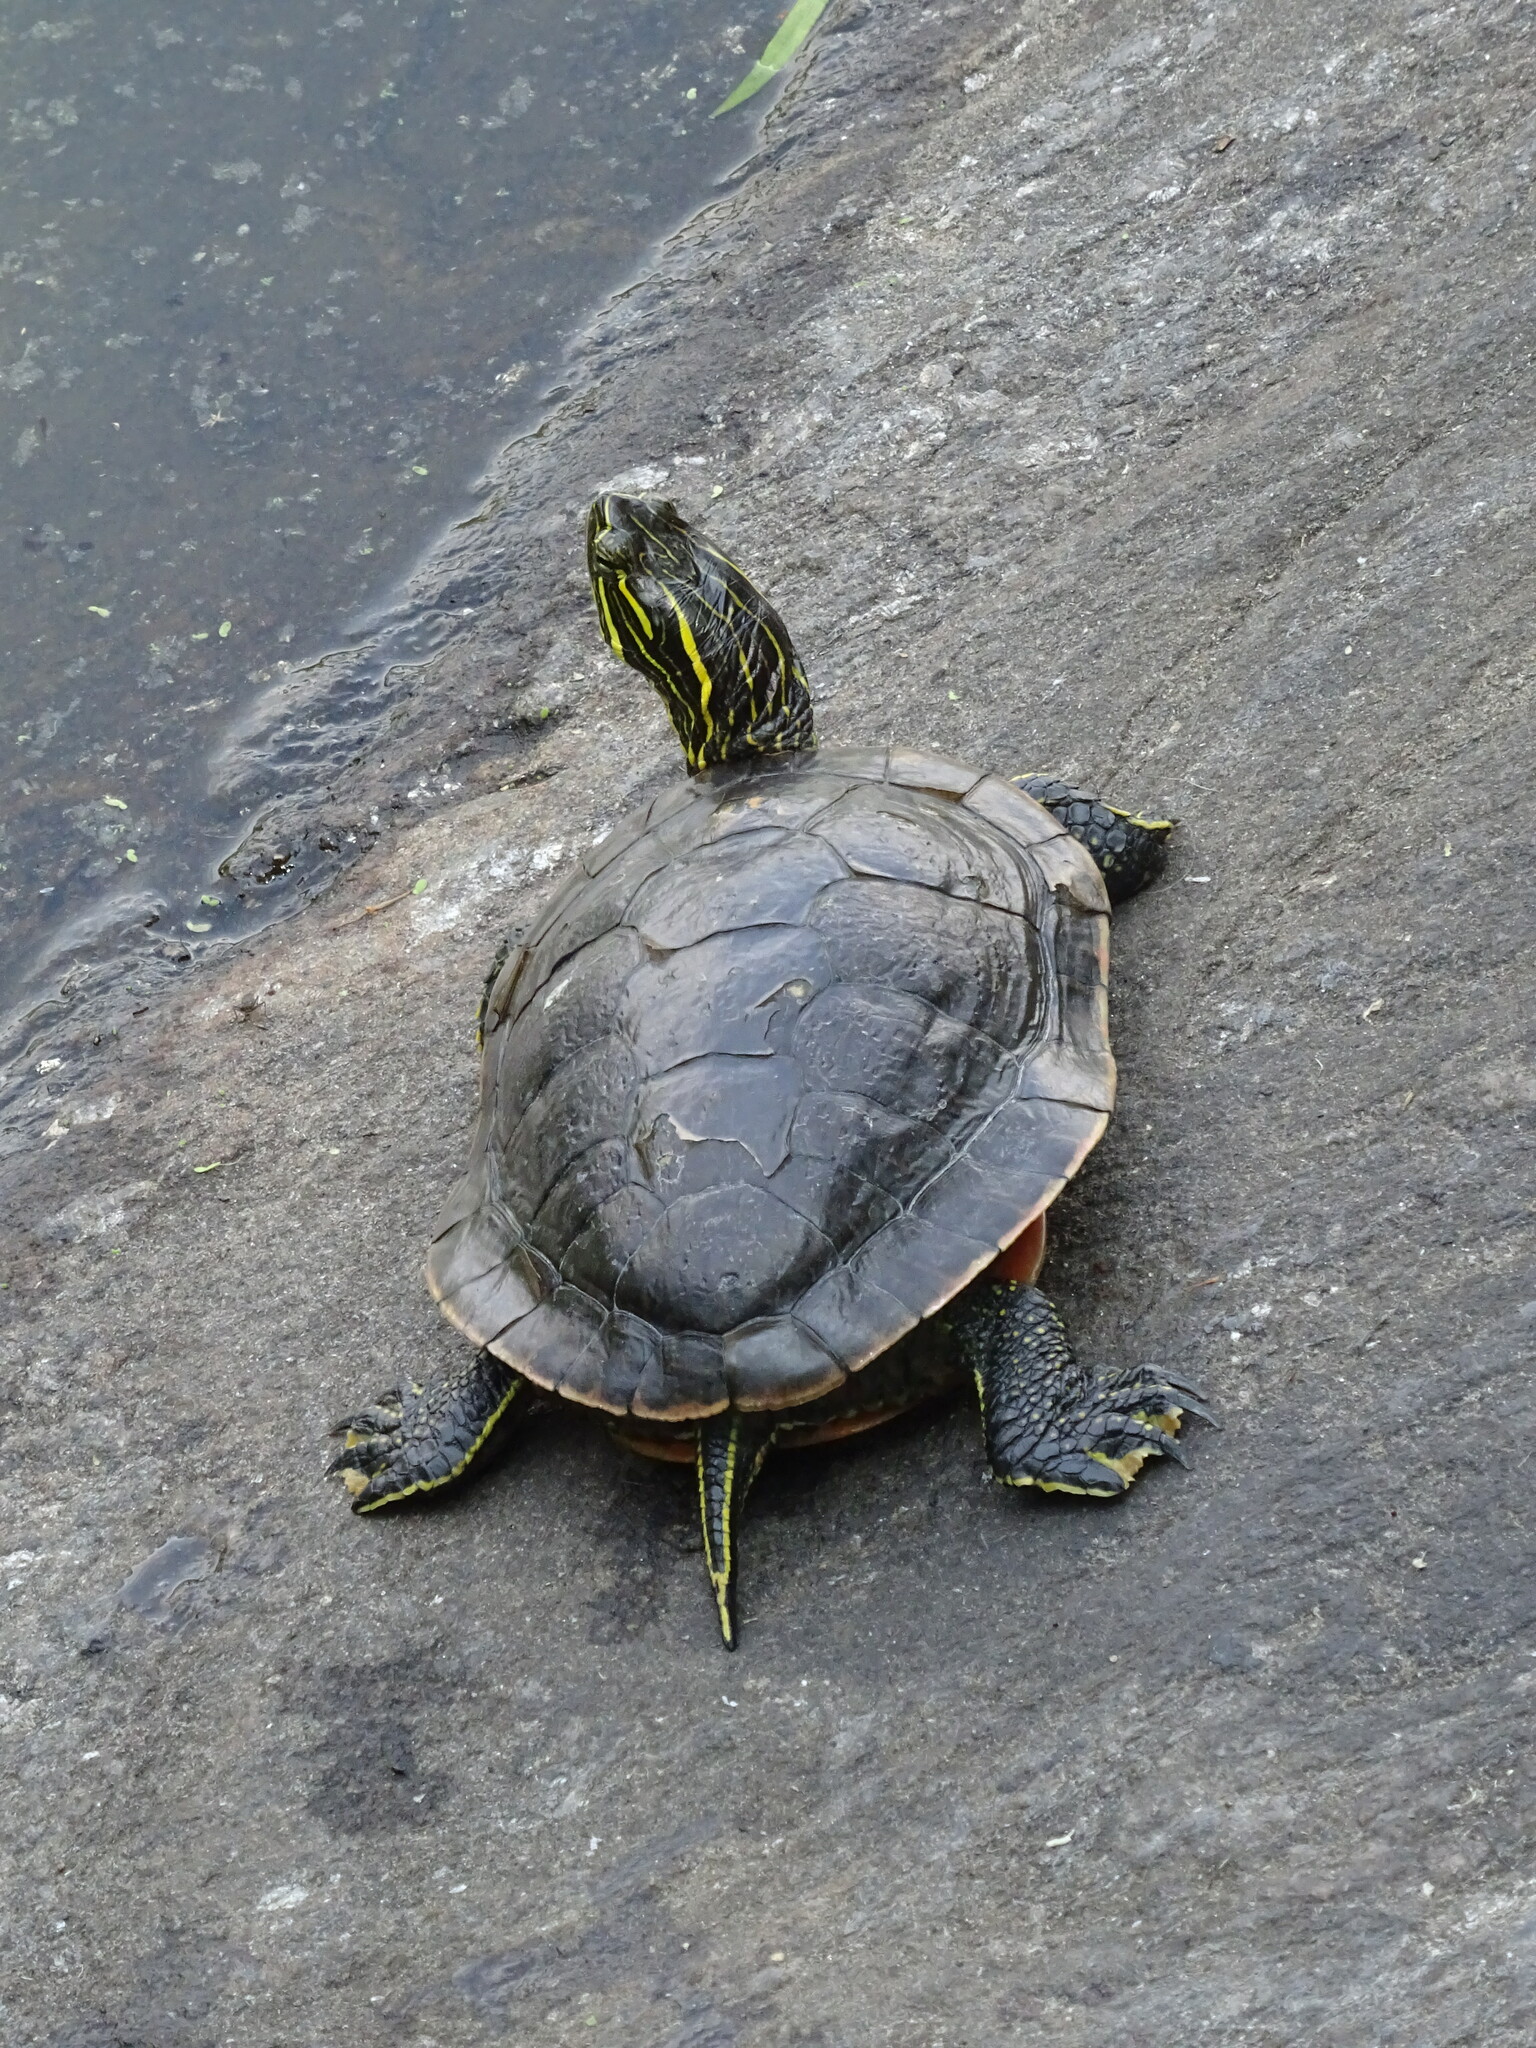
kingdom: Animalia
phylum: Chordata
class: Testudines
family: Emydidae
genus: Chrysemys
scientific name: Chrysemys picta
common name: Painted turtle
